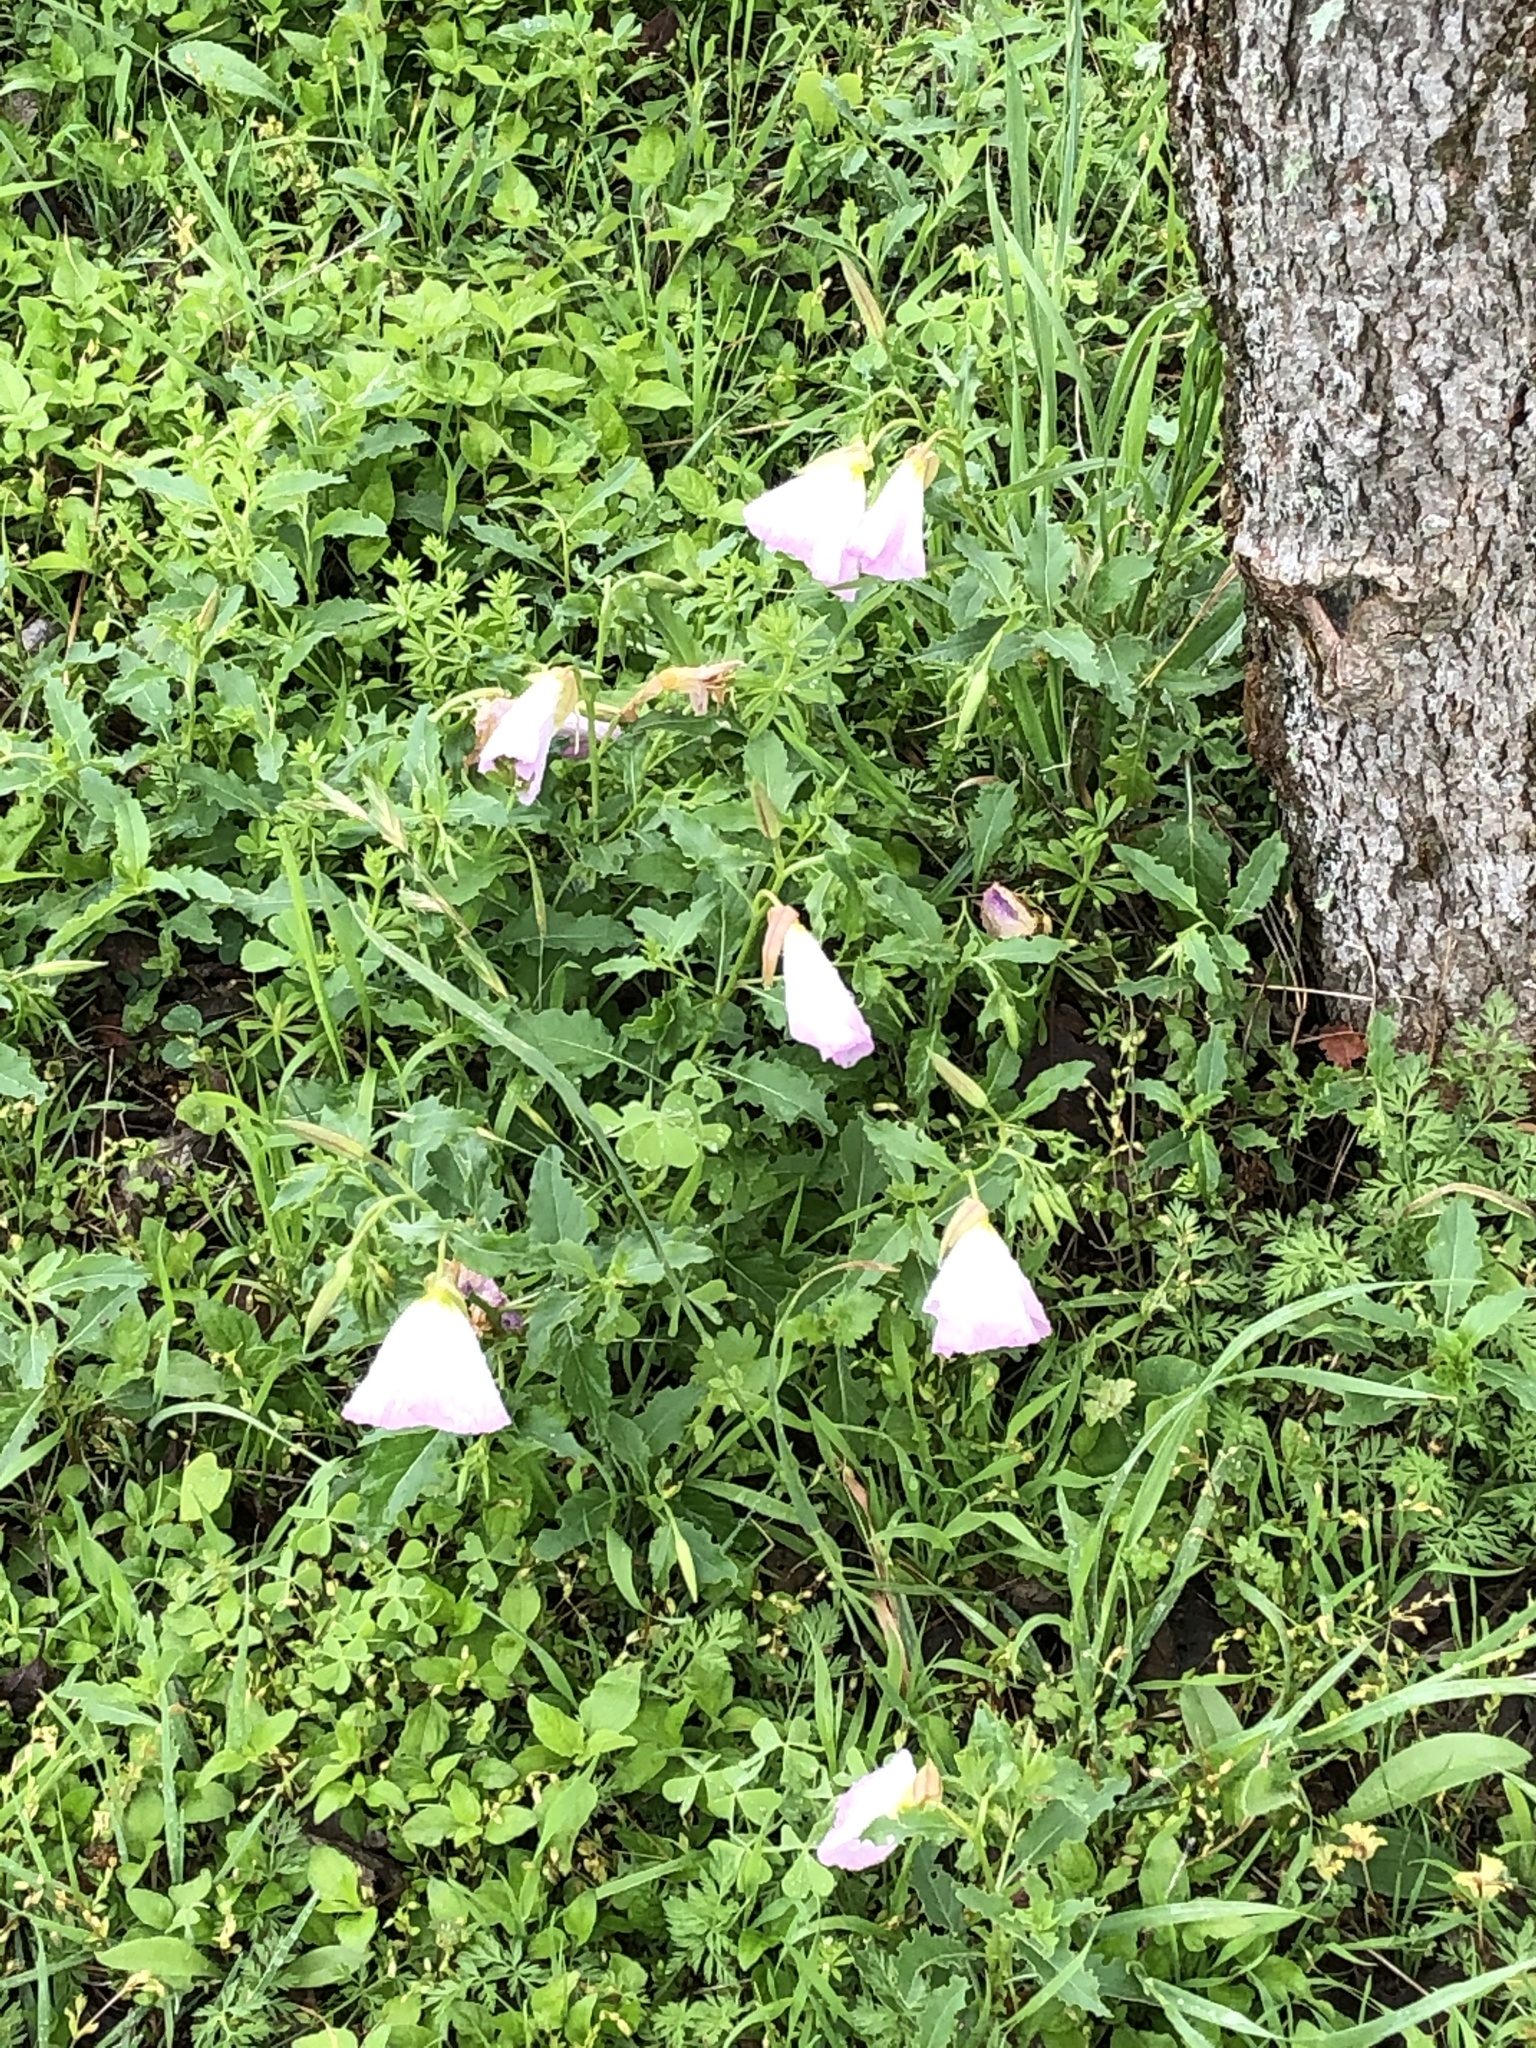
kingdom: Plantae
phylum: Tracheophyta
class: Magnoliopsida
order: Myrtales
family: Onagraceae
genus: Oenothera
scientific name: Oenothera speciosa
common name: White evening-primrose
